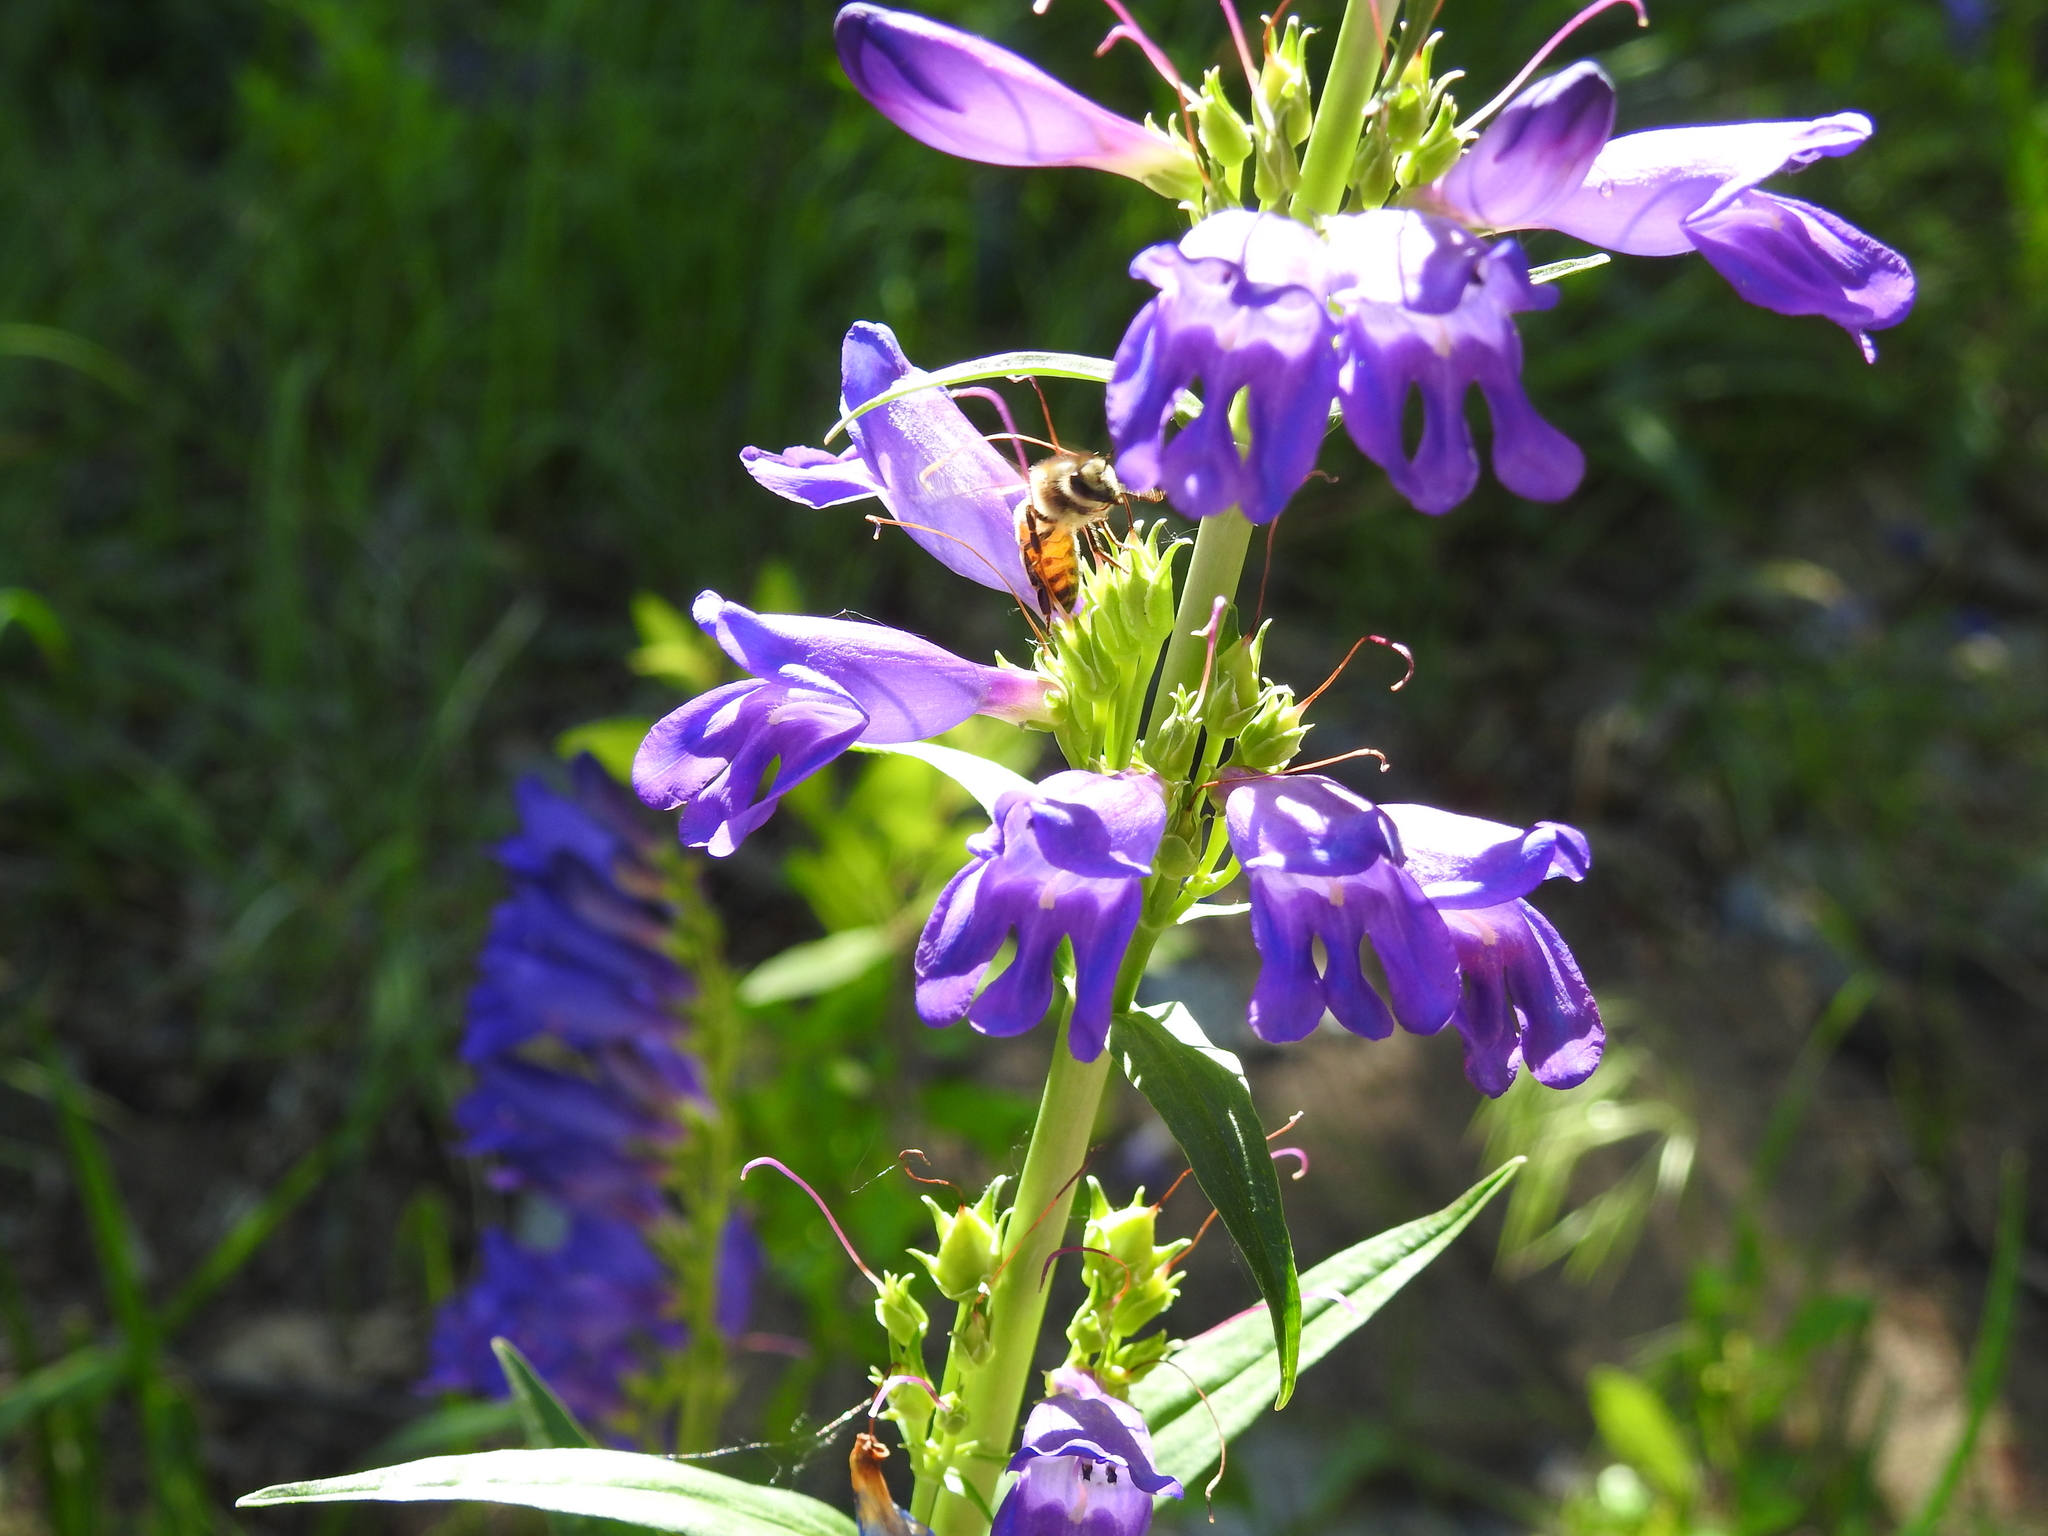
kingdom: Animalia
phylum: Arthropoda
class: Insecta
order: Hymenoptera
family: Apidae
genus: Apis
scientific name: Apis mellifera
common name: Honey bee
